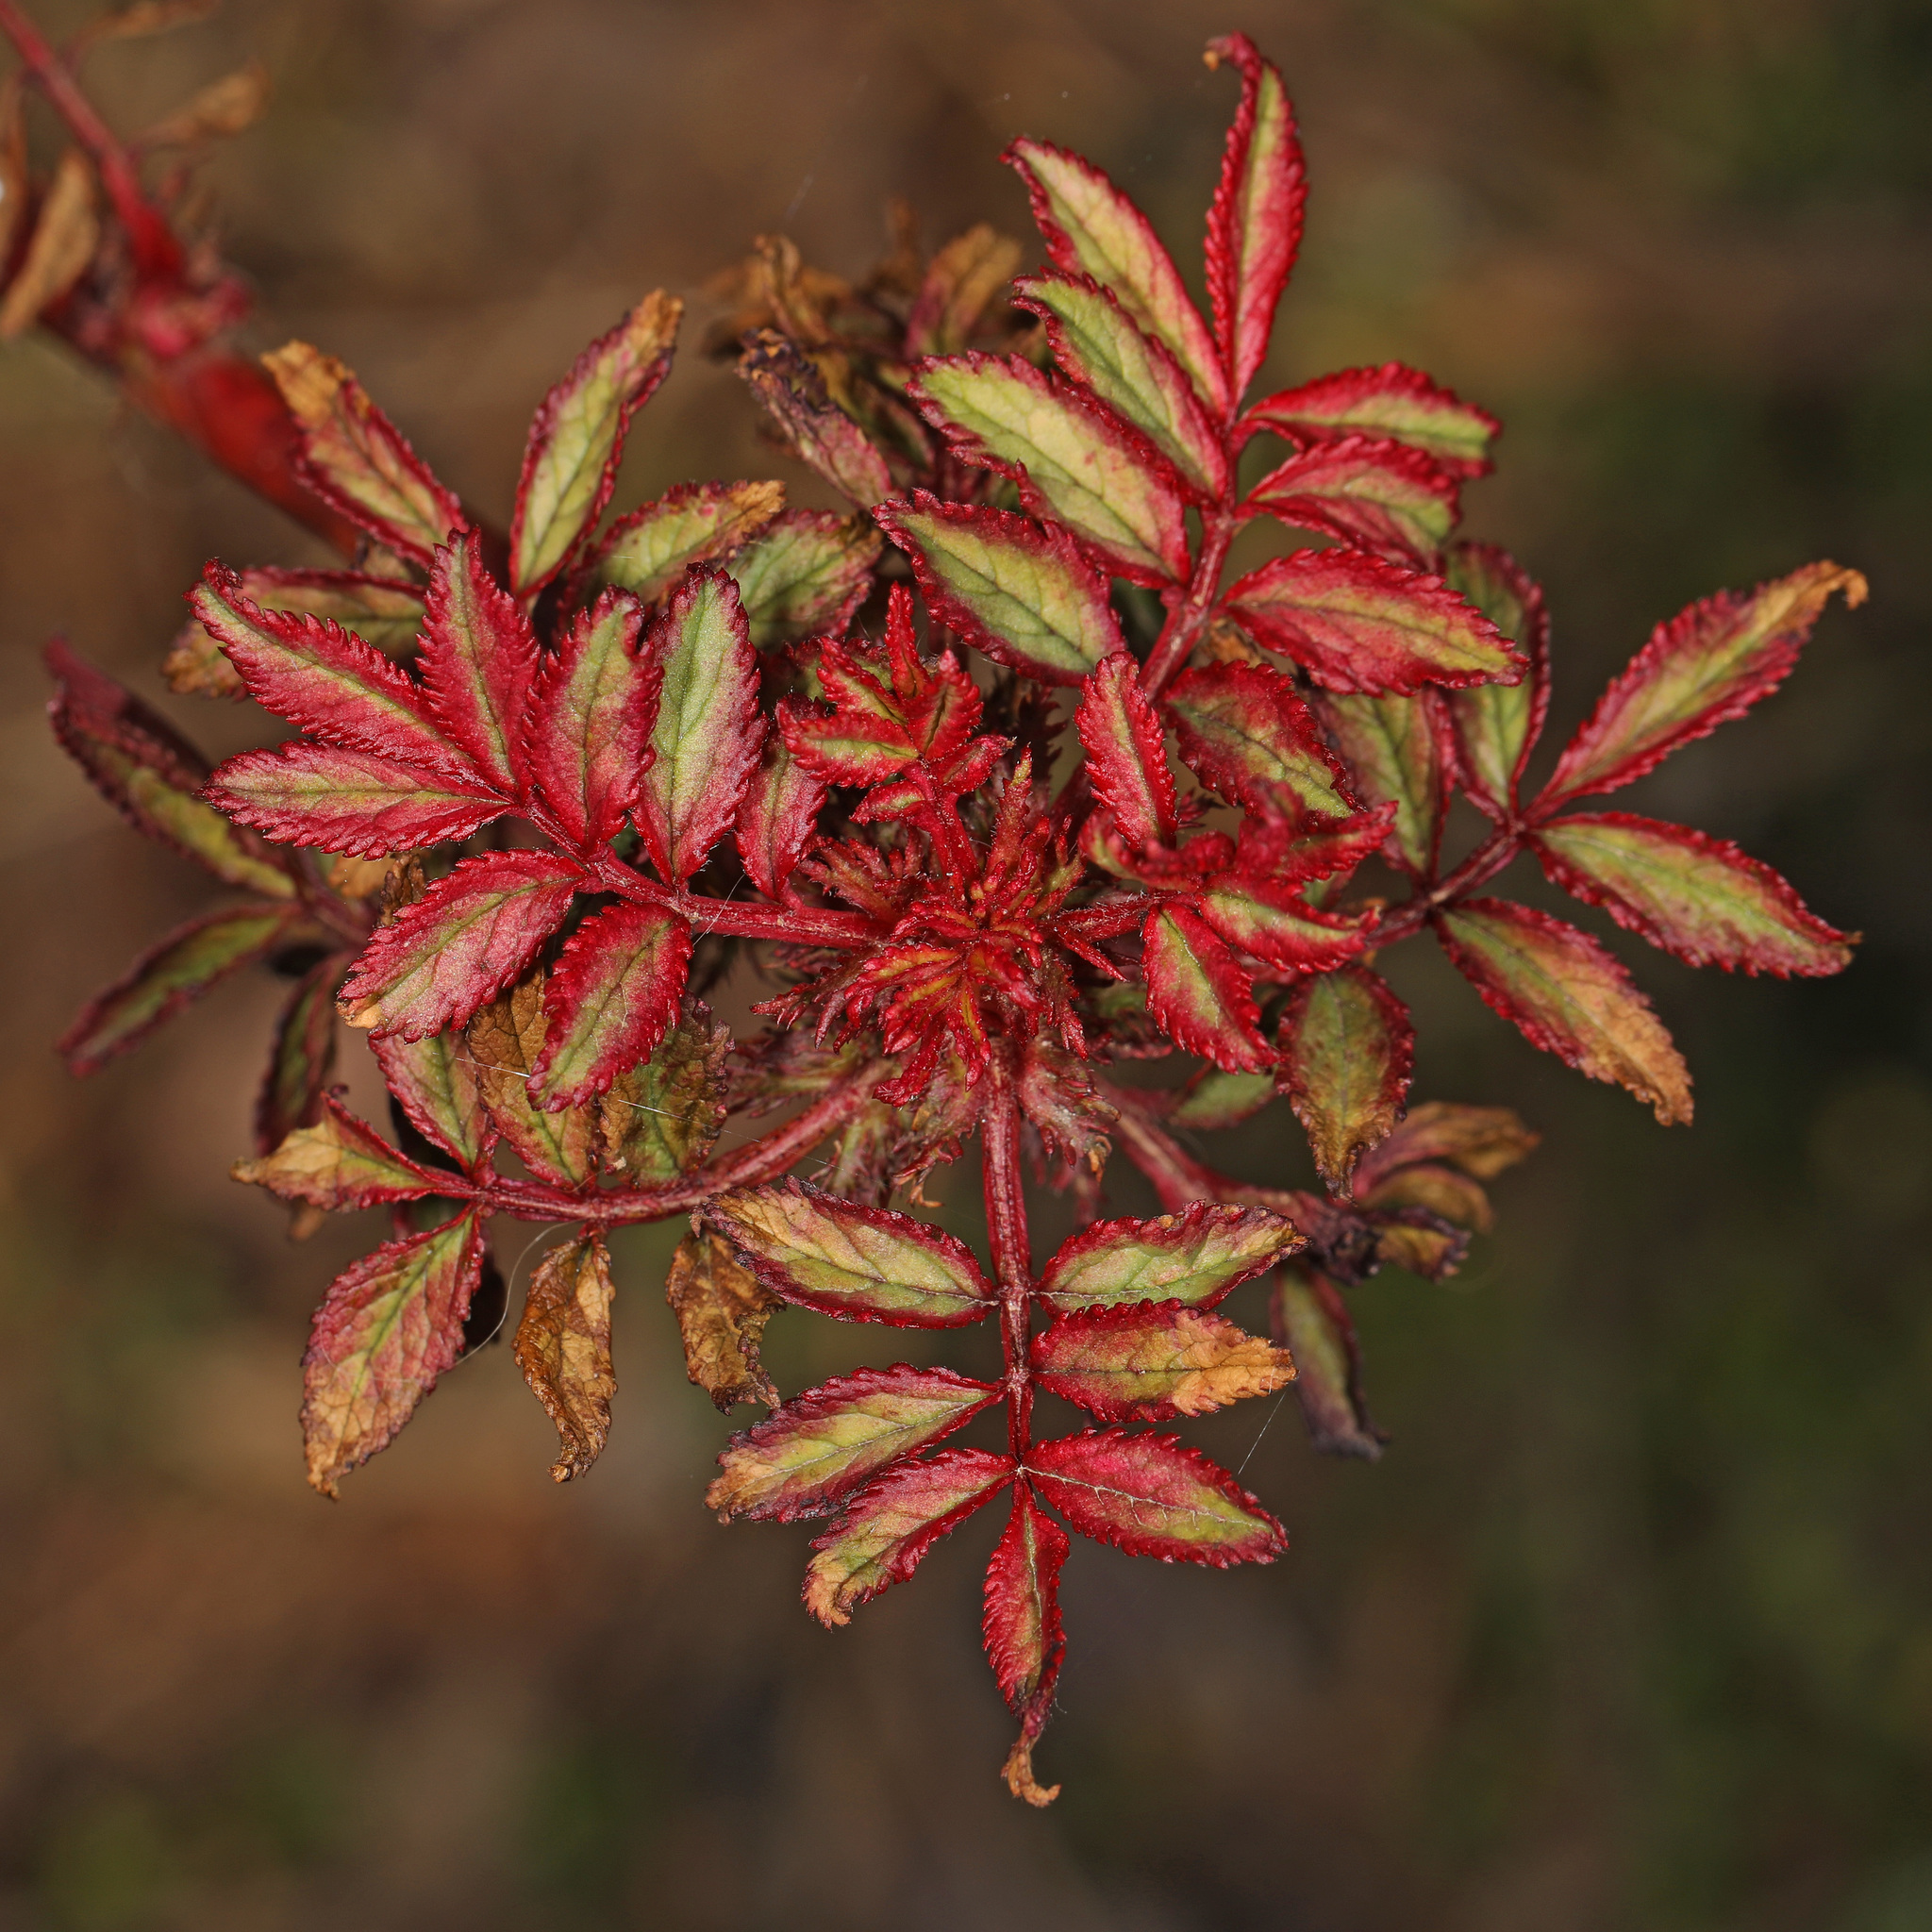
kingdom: Plantae
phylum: Tracheophyta
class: Magnoliopsida
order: Rosales
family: Rosaceae
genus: Rosa
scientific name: Rosa multiflora
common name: Multiflora rose
